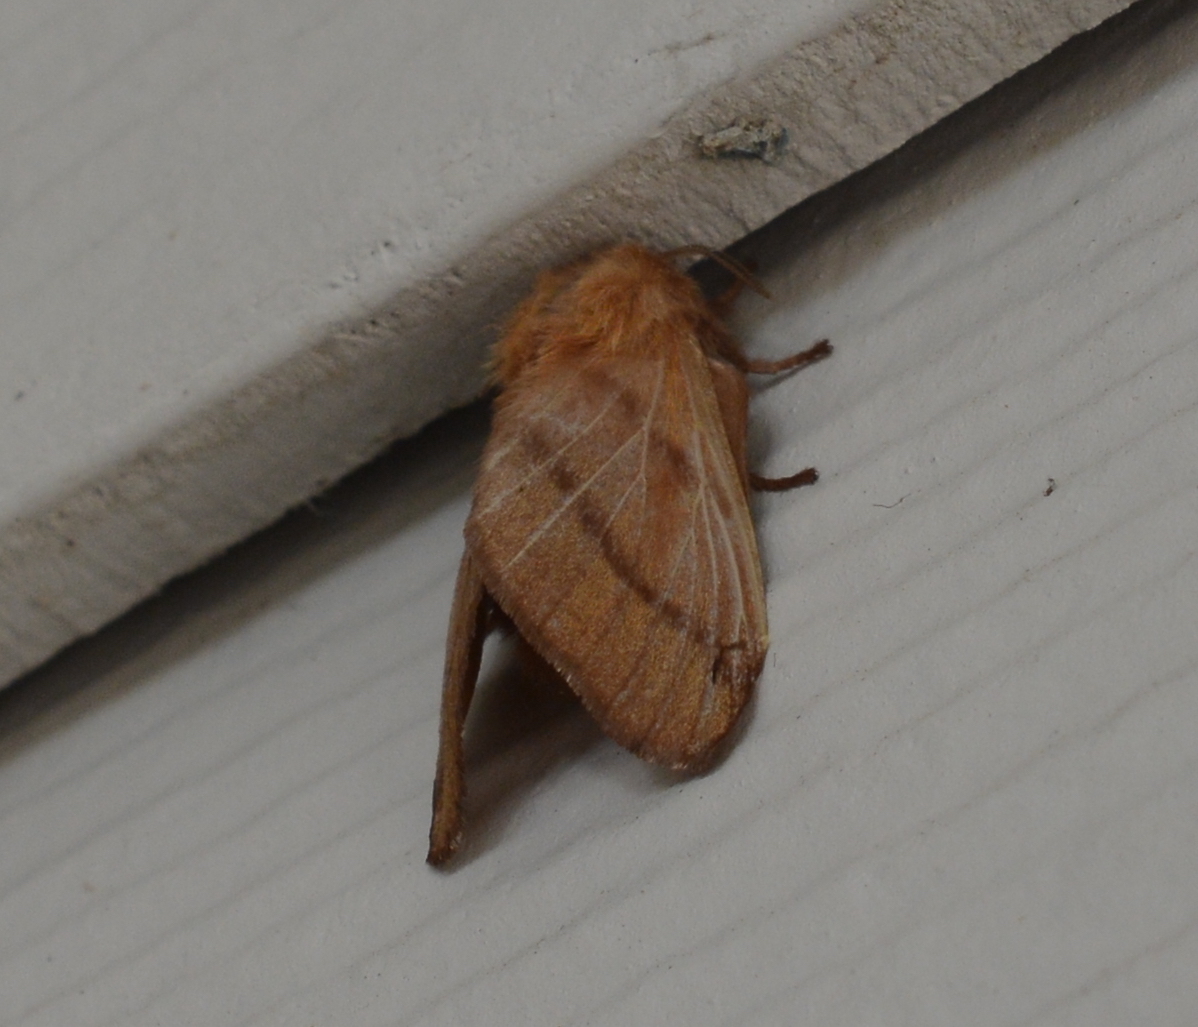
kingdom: Animalia
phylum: Arthropoda
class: Insecta
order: Lepidoptera
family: Lasiocampidae
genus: Malacosoma
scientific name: Malacosoma disstria
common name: Forest tent caterpillar
